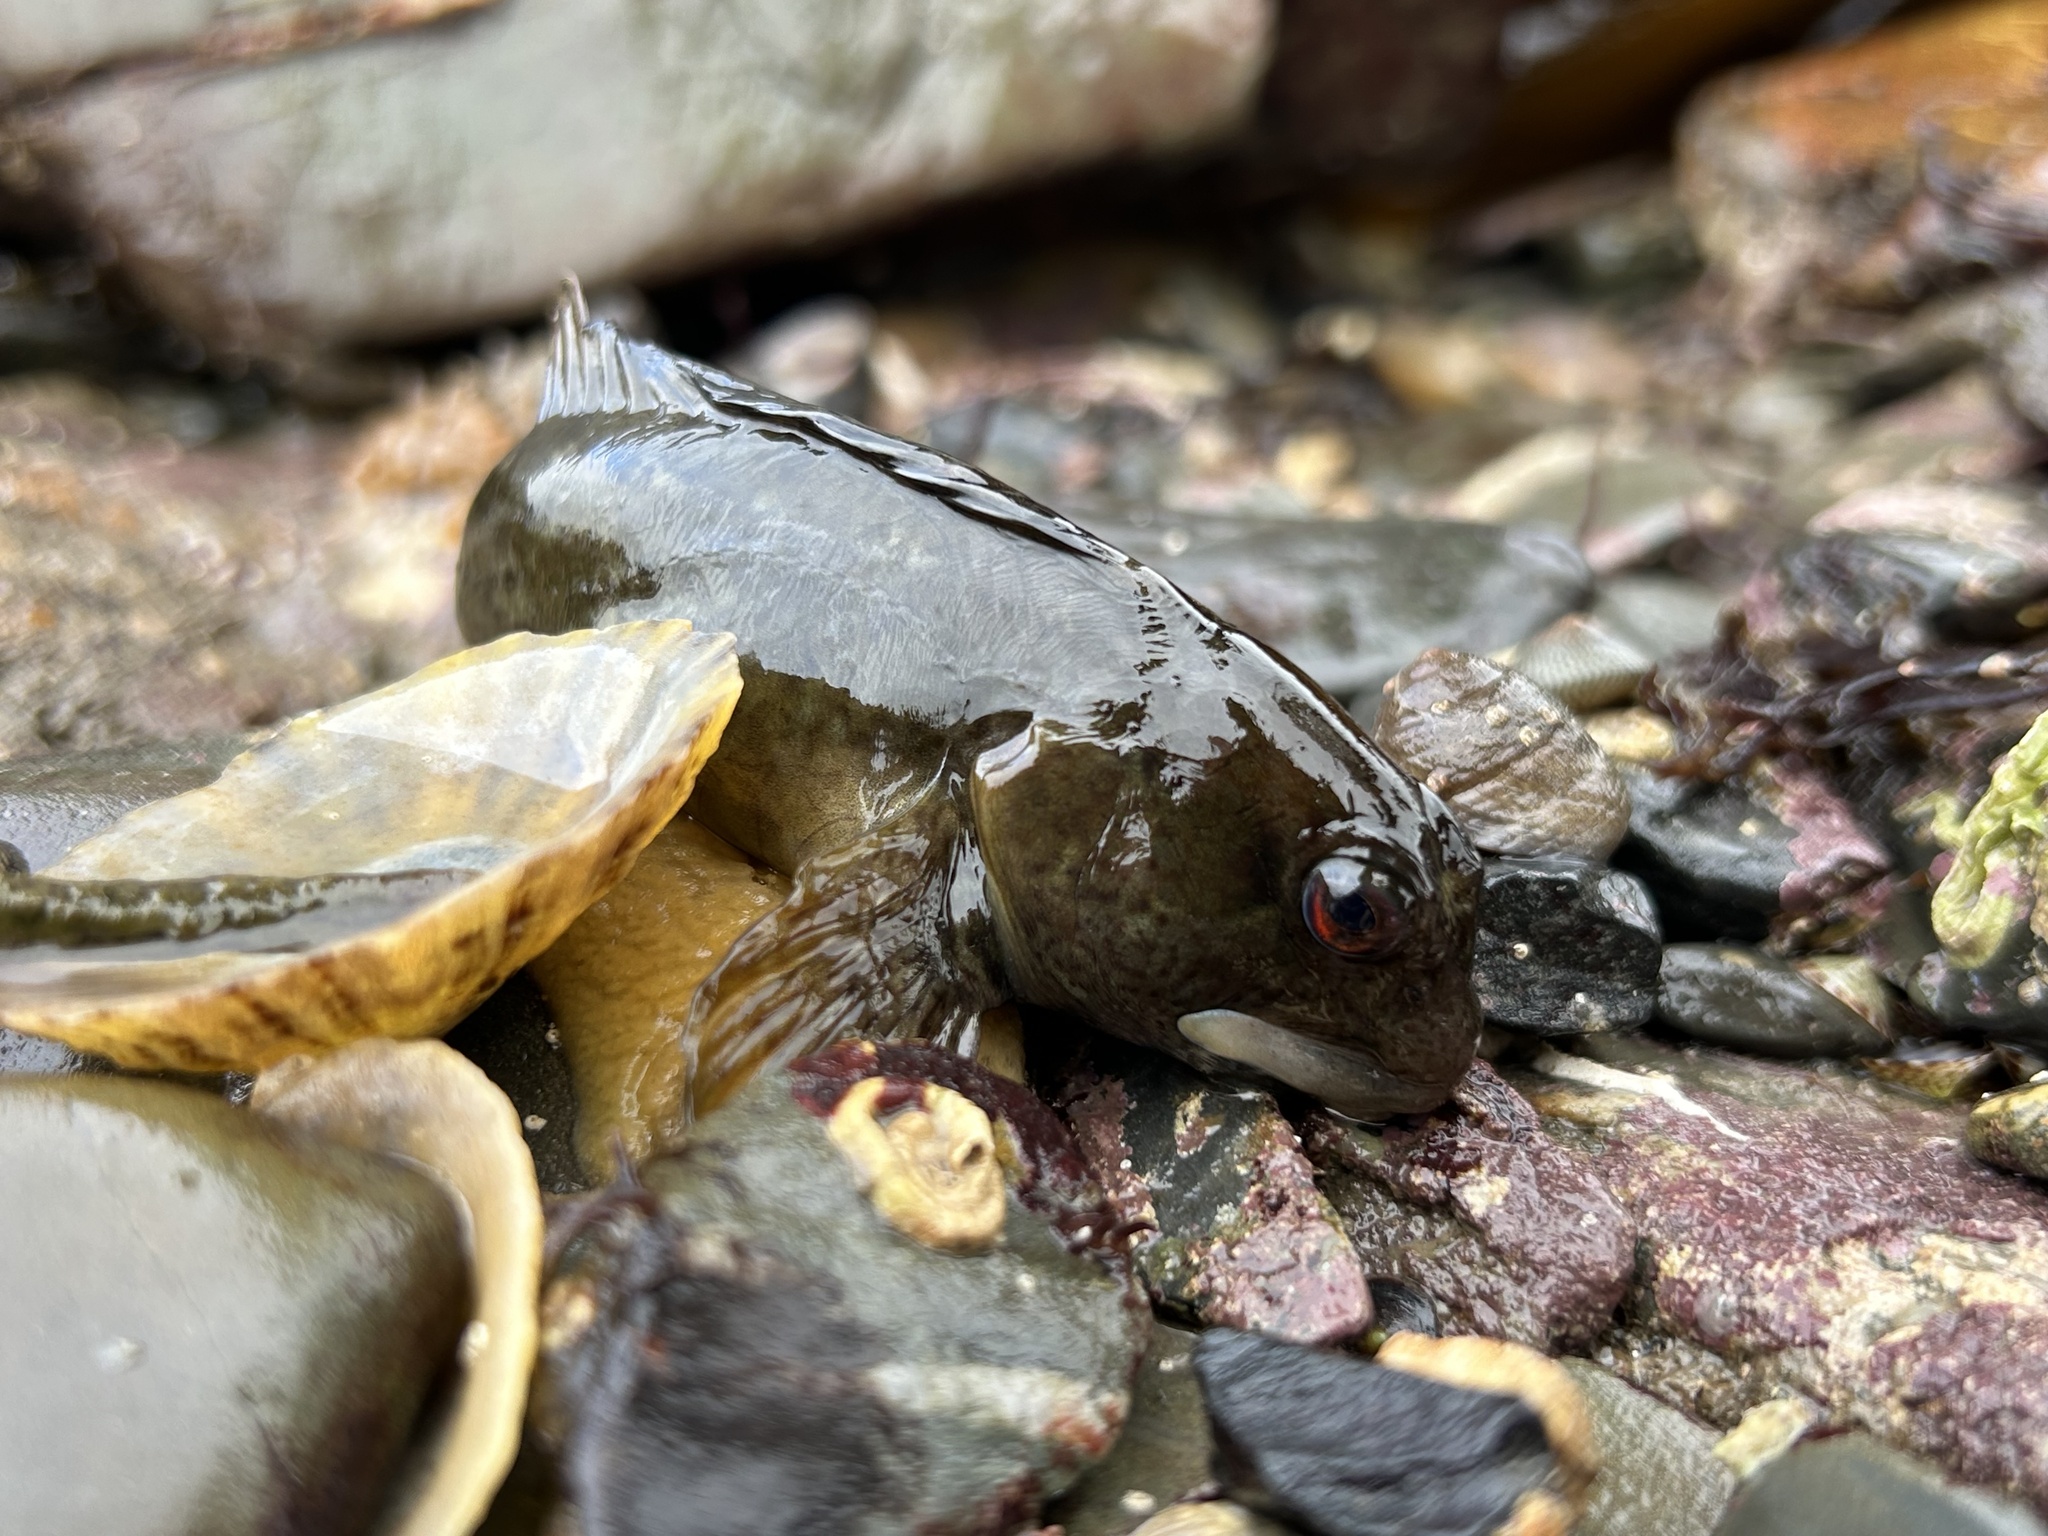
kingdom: Animalia
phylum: Chordata
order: Perciformes
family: Blenniidae
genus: Lipophrys
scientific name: Lipophrys pholis
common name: Shanny
